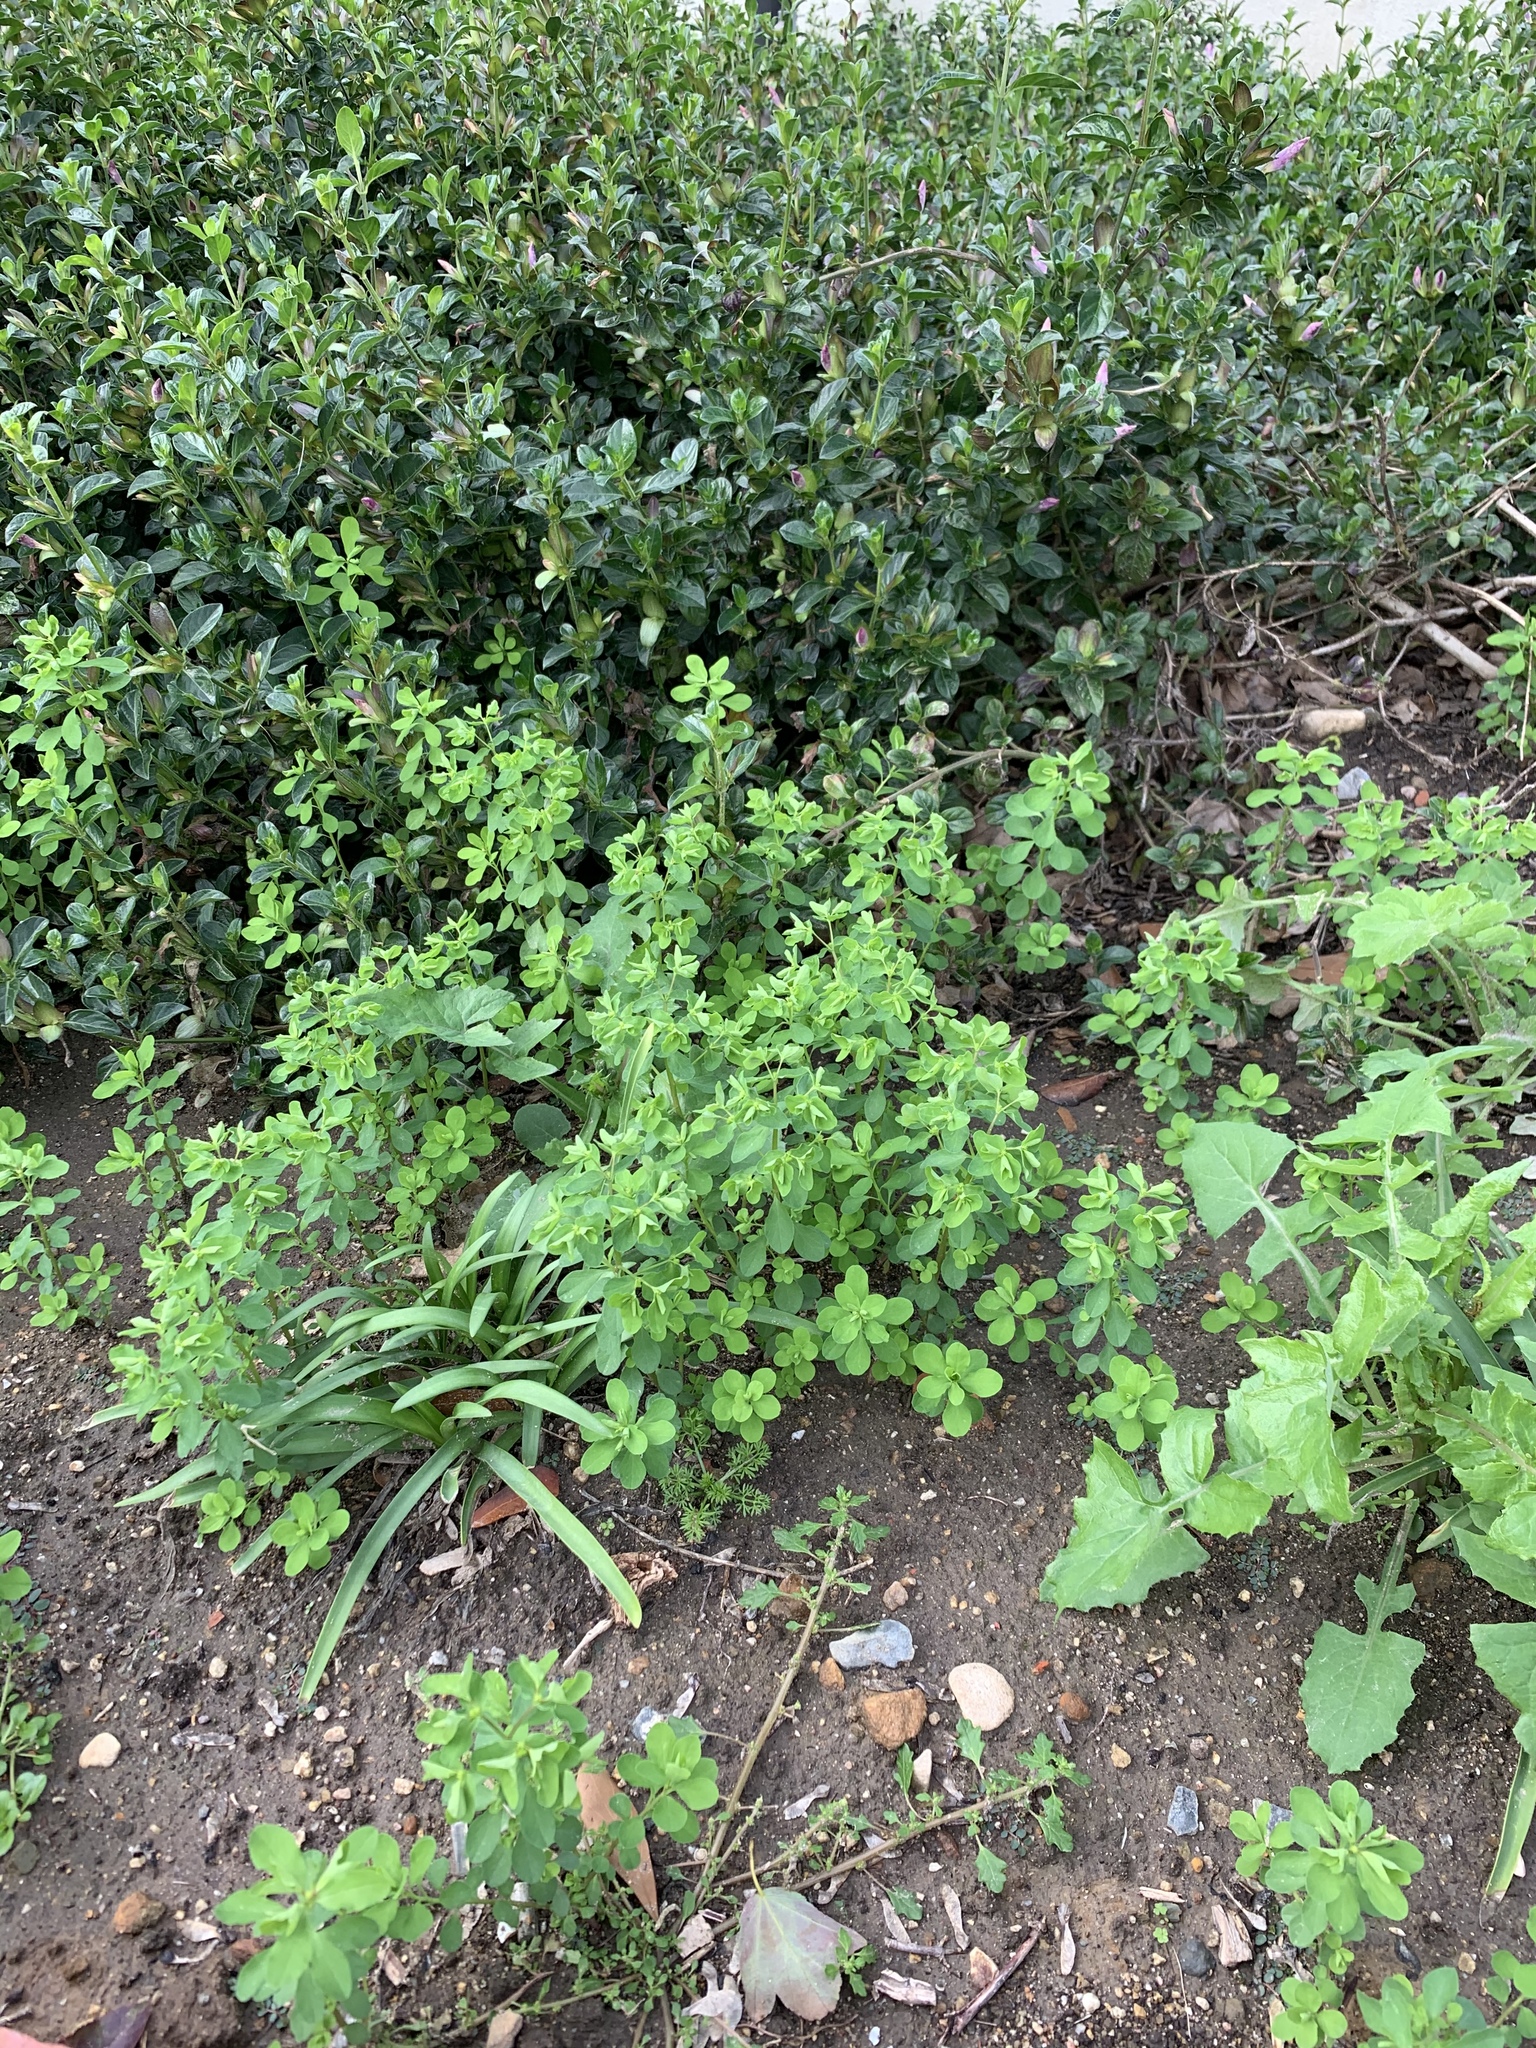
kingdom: Plantae
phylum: Tracheophyta
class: Magnoliopsida
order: Malpighiales
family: Euphorbiaceae
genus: Euphorbia
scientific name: Euphorbia peplus
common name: Petty spurge
